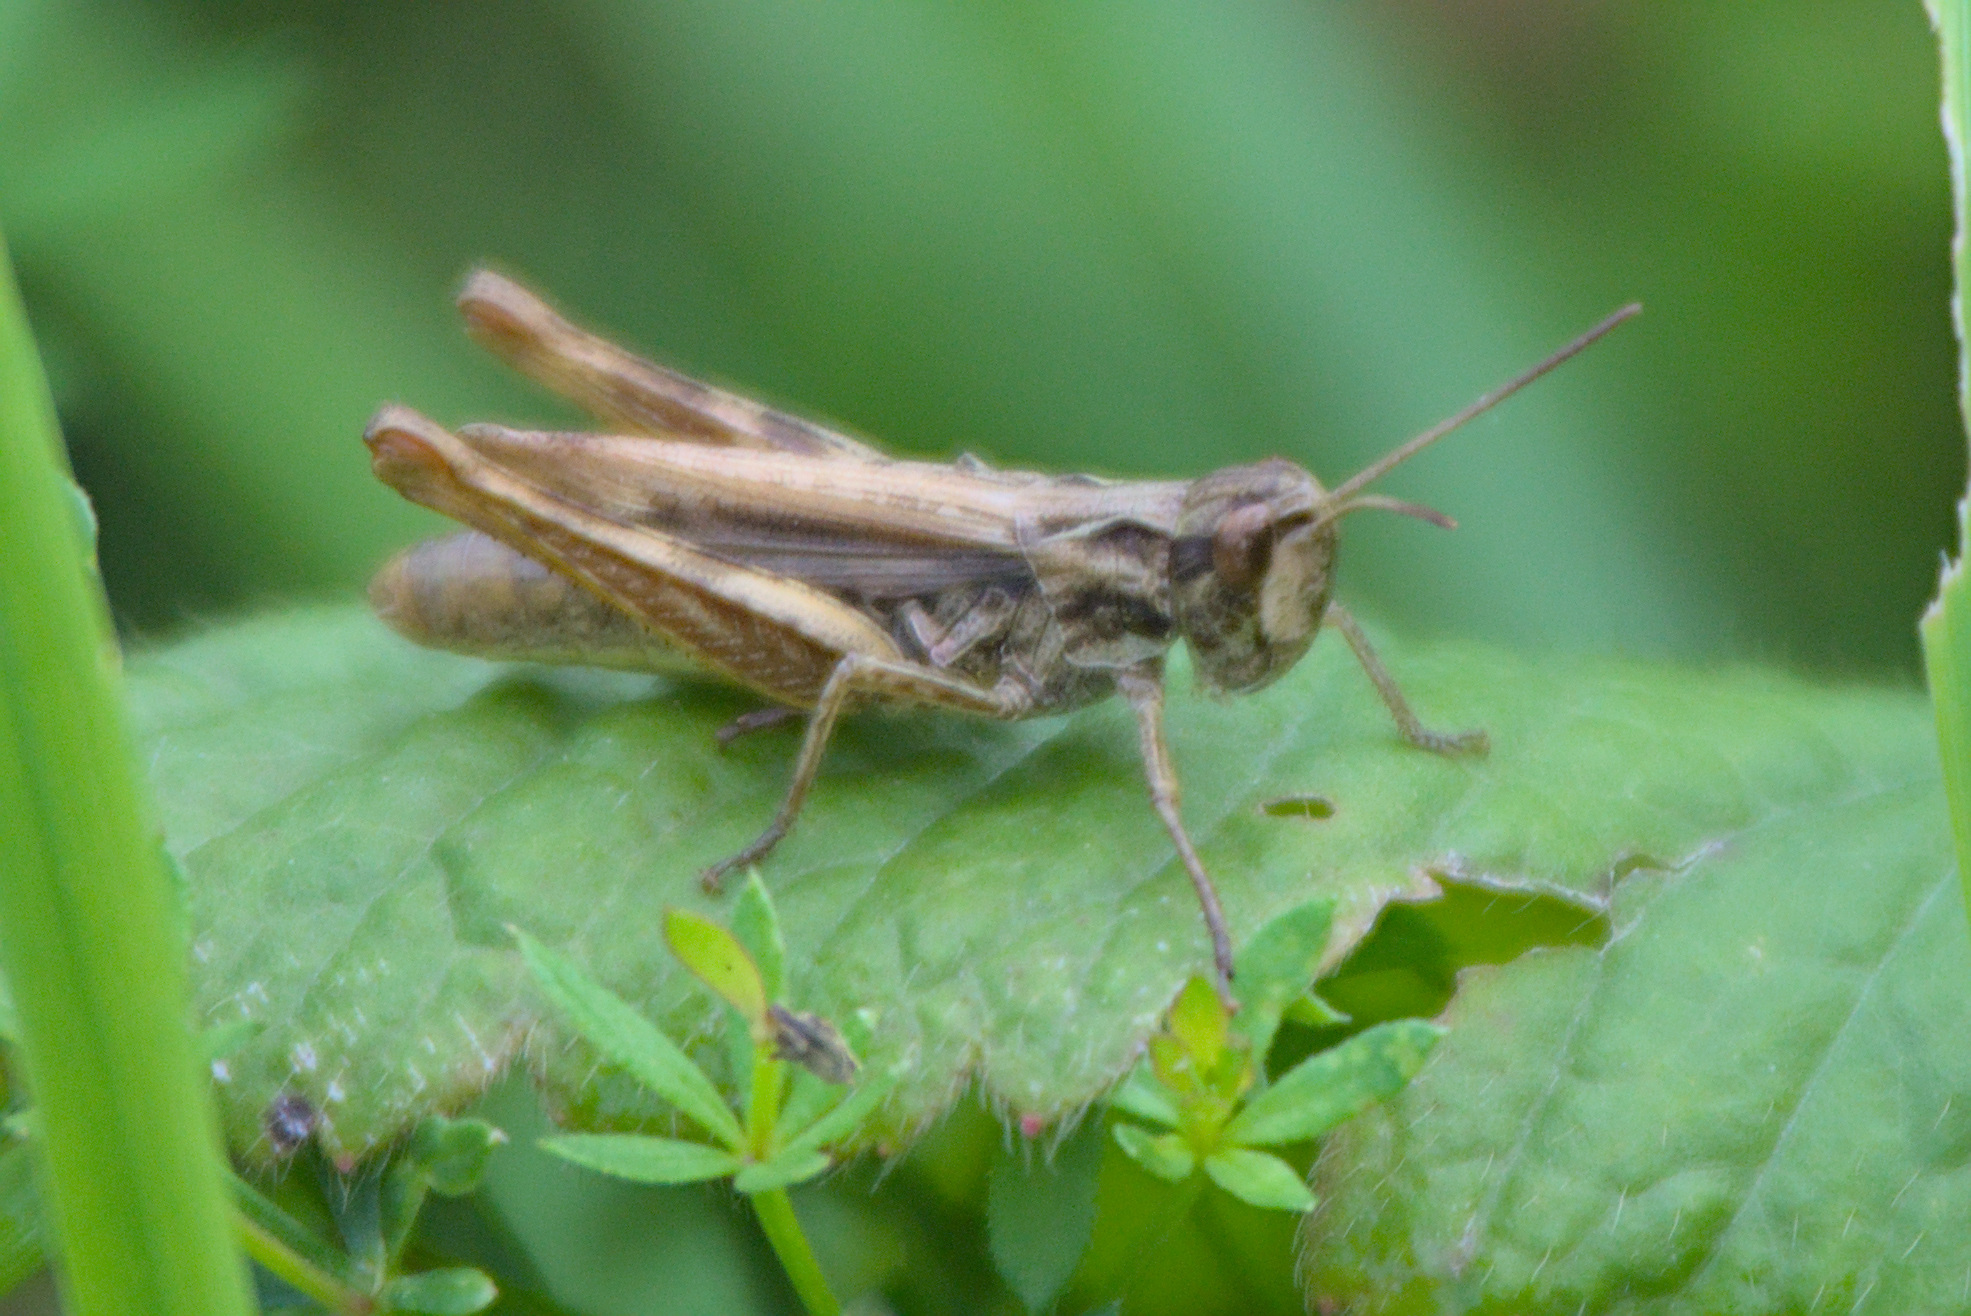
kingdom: Animalia
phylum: Arthropoda
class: Insecta
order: Orthoptera
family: Acrididae
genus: Chorthippus
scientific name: Chorthippus apricarius
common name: Upland field grasshopper
